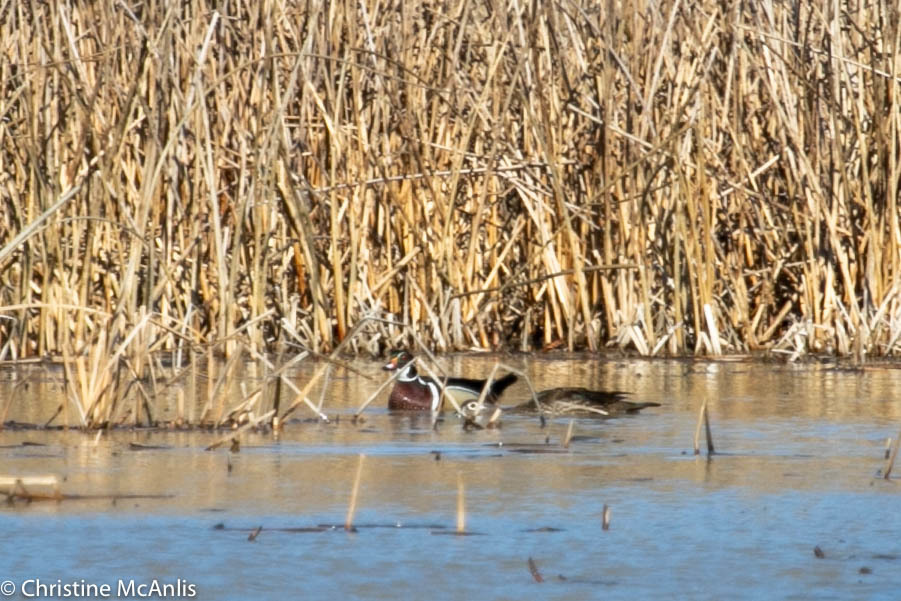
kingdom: Animalia
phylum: Chordata
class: Aves
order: Anseriformes
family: Anatidae
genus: Aix
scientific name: Aix sponsa
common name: Wood duck
